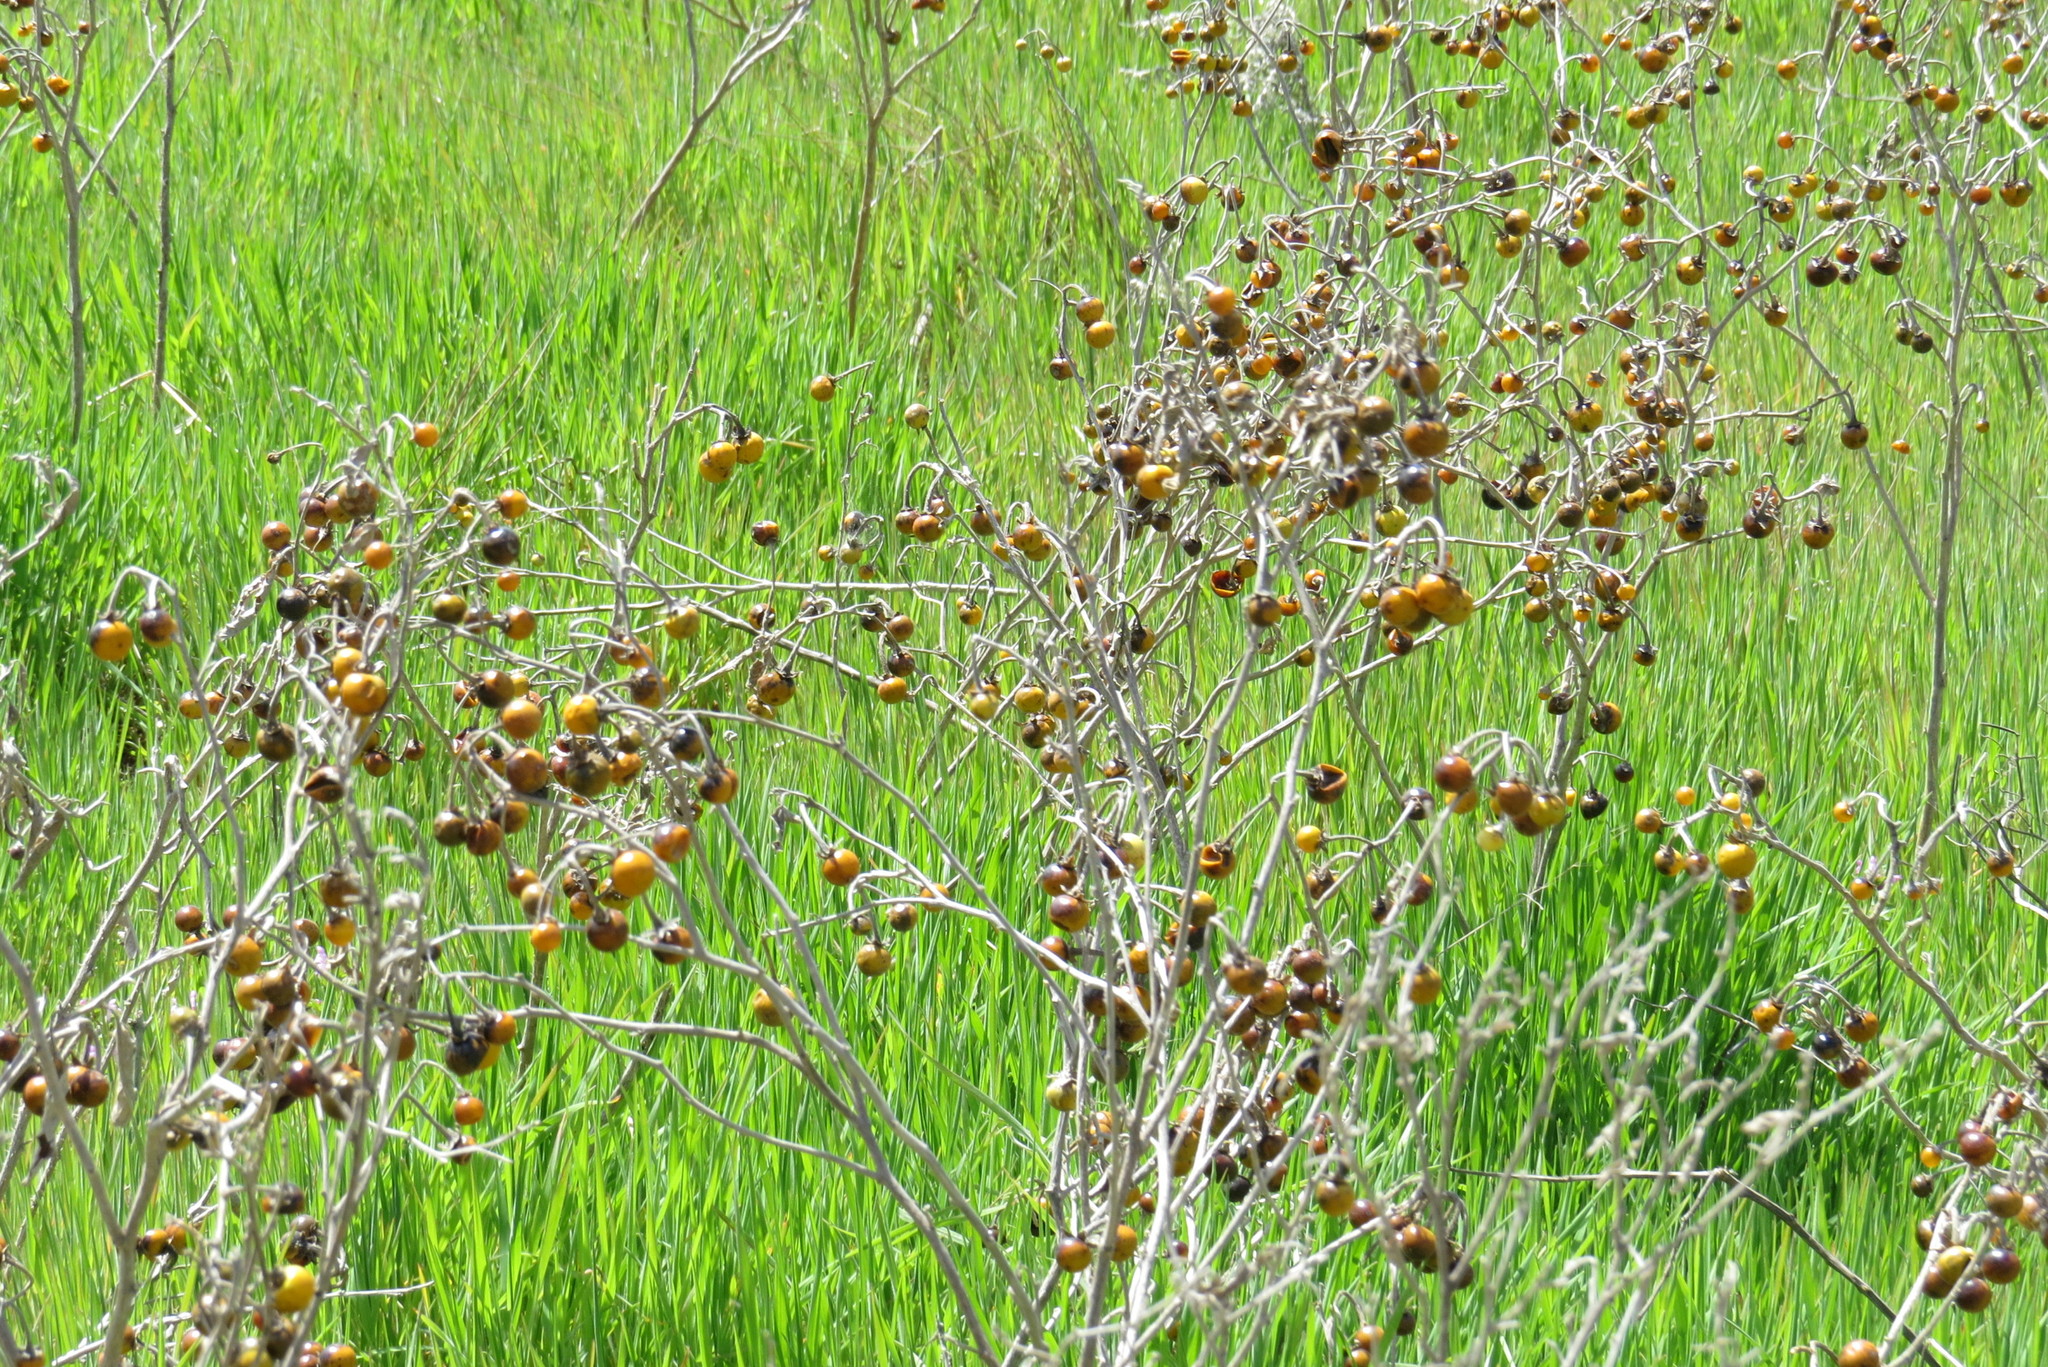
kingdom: Plantae
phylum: Tracheophyta
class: Magnoliopsida
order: Solanales
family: Solanaceae
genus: Solanum
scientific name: Solanum elaeagnifolium
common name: Silverleaf nightshade
